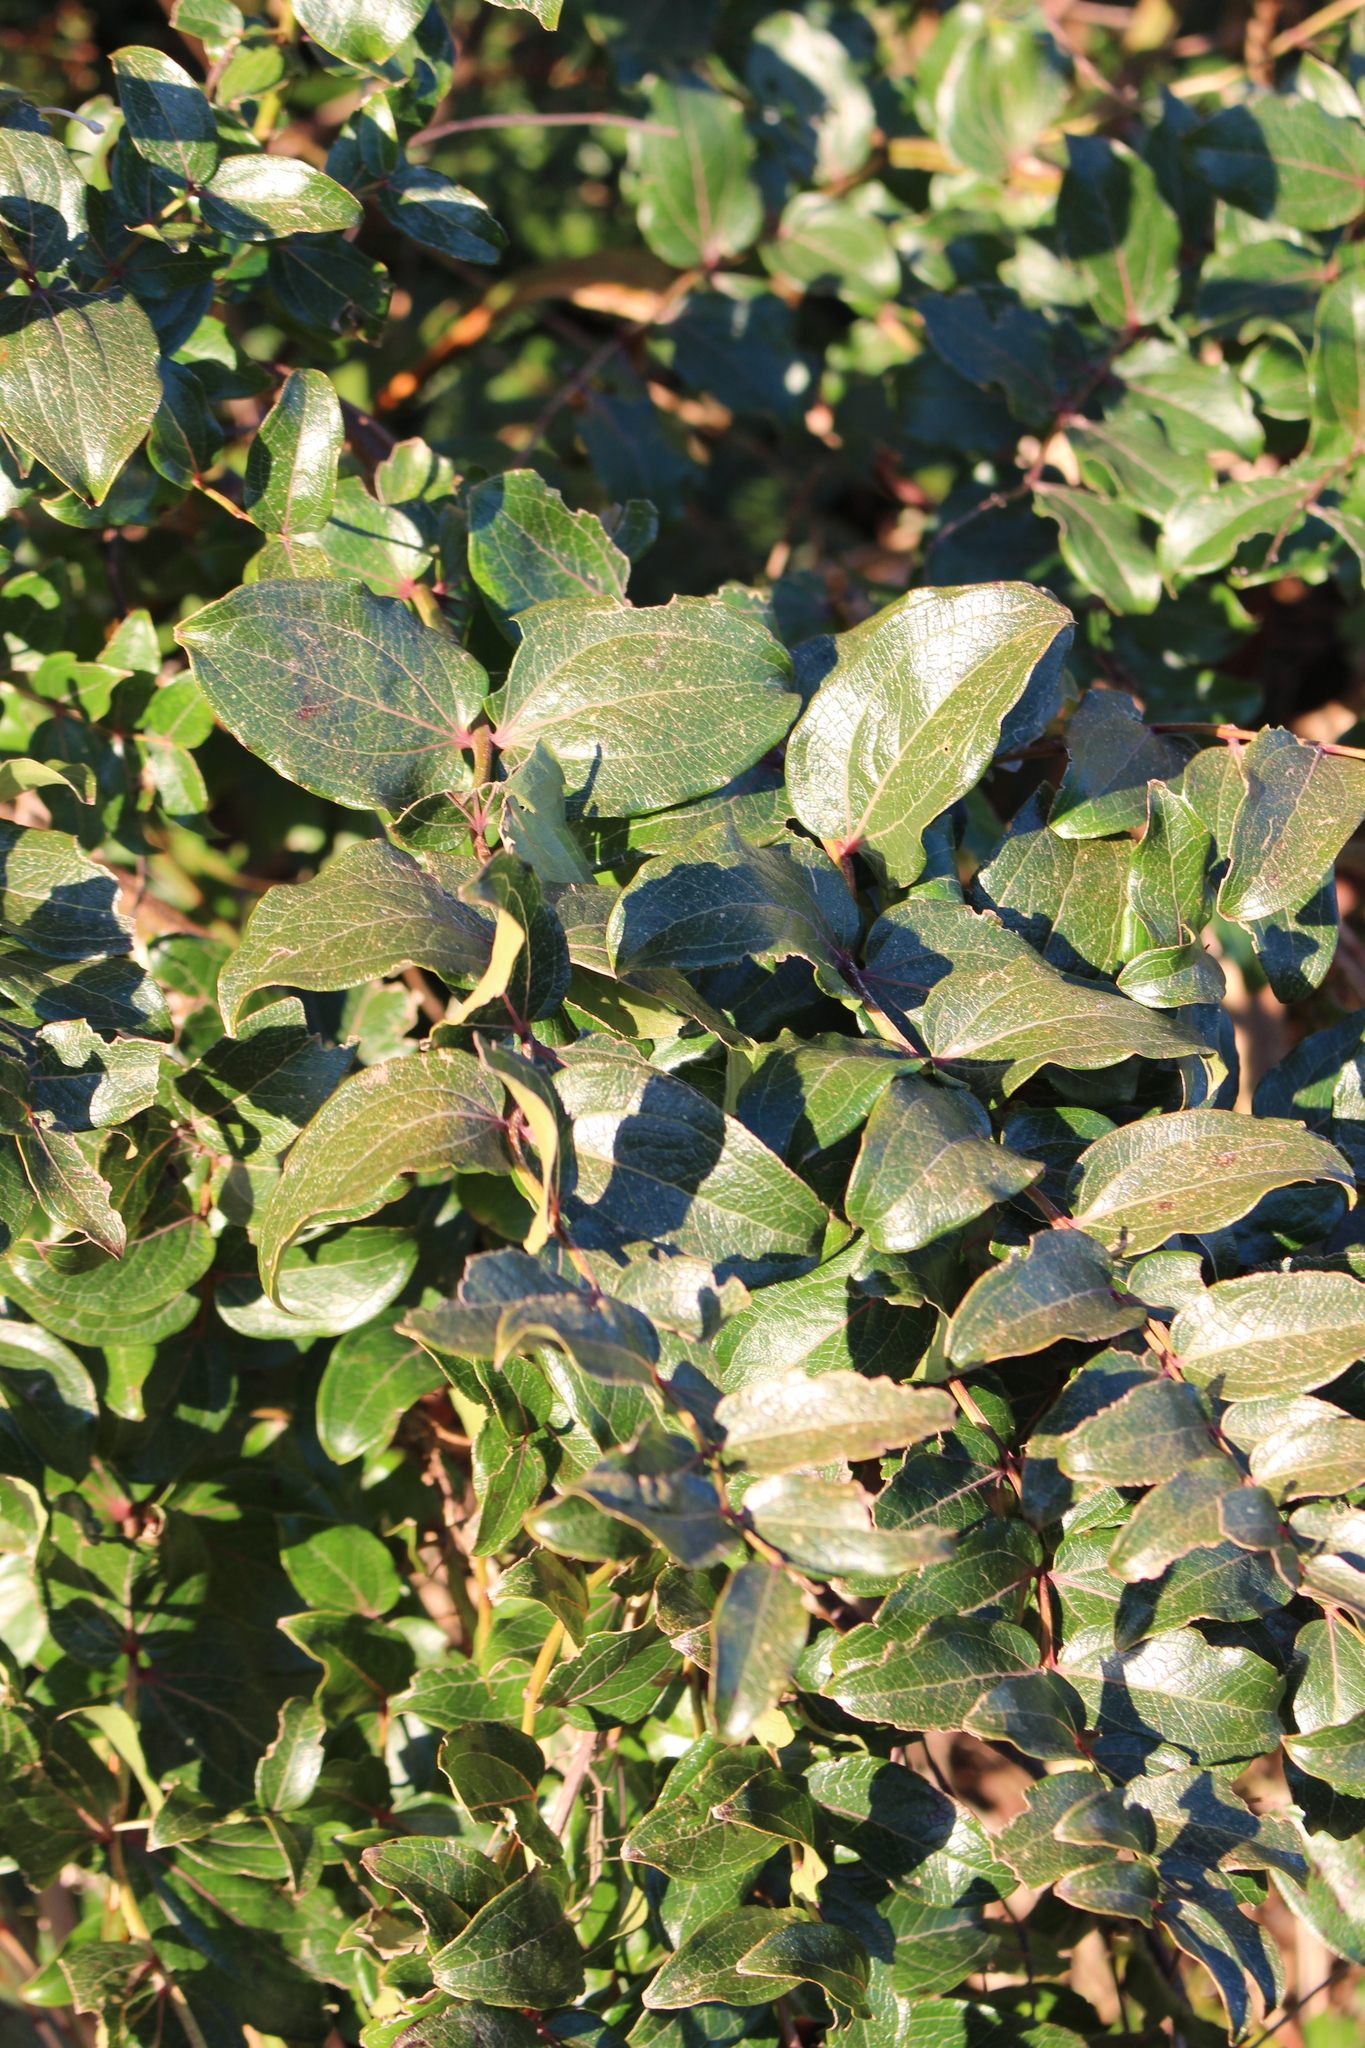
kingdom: Plantae
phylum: Tracheophyta
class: Magnoliopsida
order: Cucurbitales
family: Coriariaceae
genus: Coriaria
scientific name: Coriaria sarmentosa
